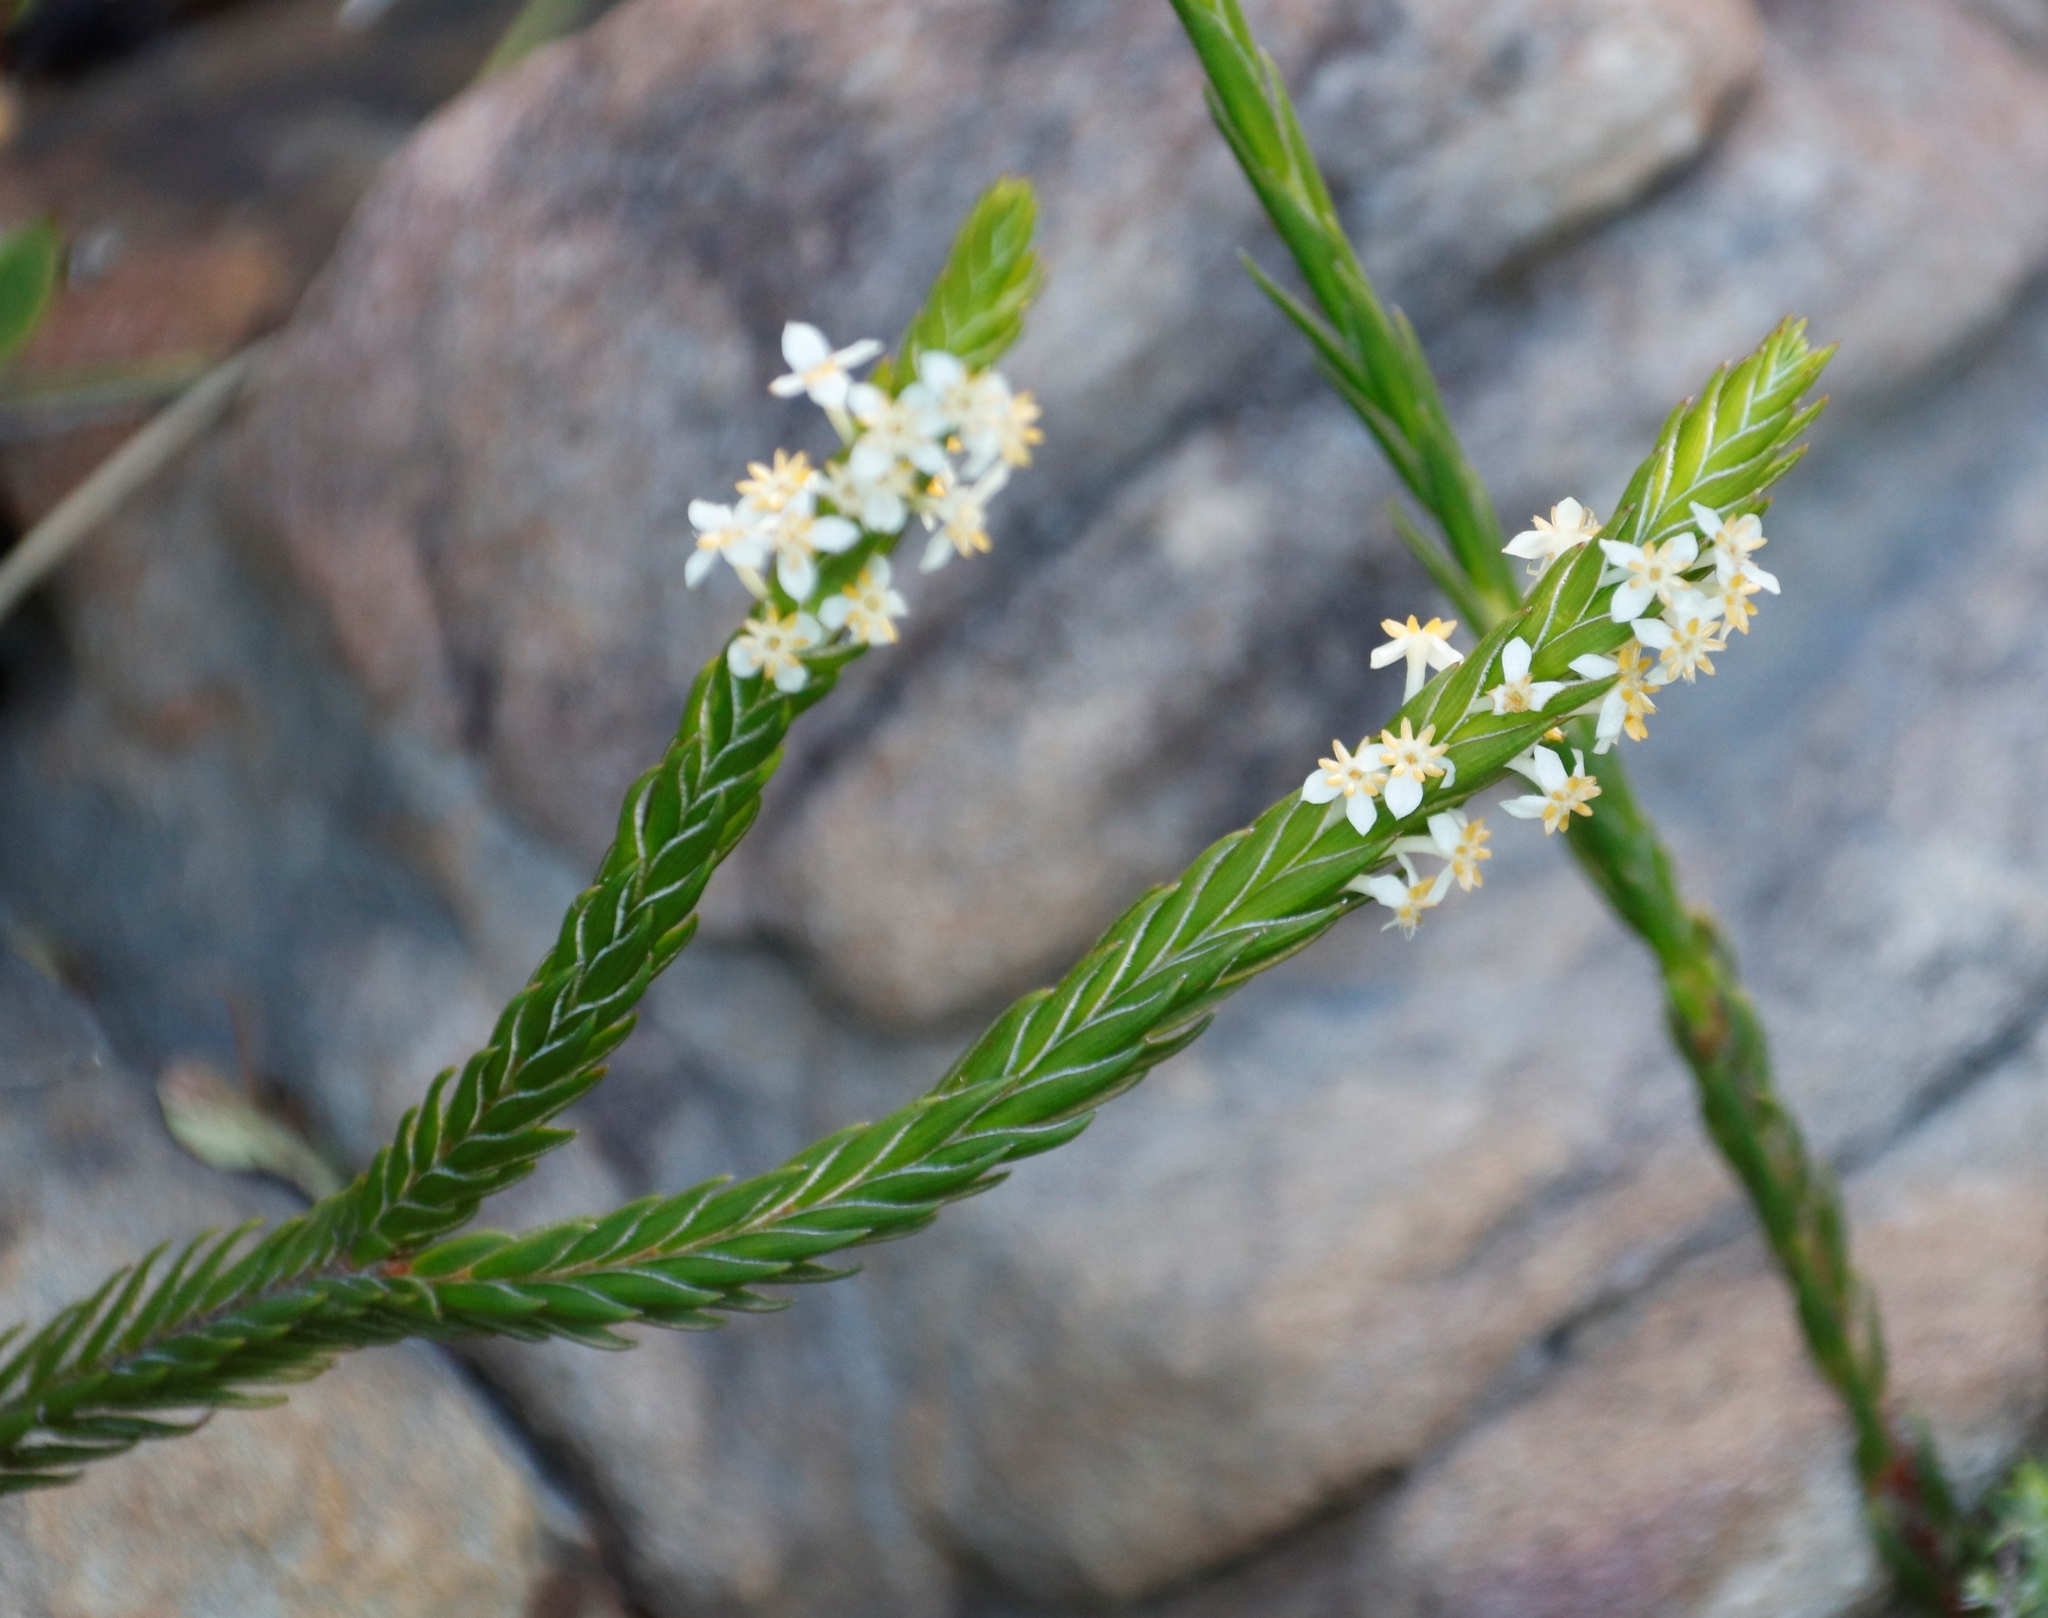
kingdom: Plantae
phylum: Tracheophyta
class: Magnoliopsida
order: Malvales
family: Thymelaeaceae
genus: Struthiola
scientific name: Struthiola ciliata
